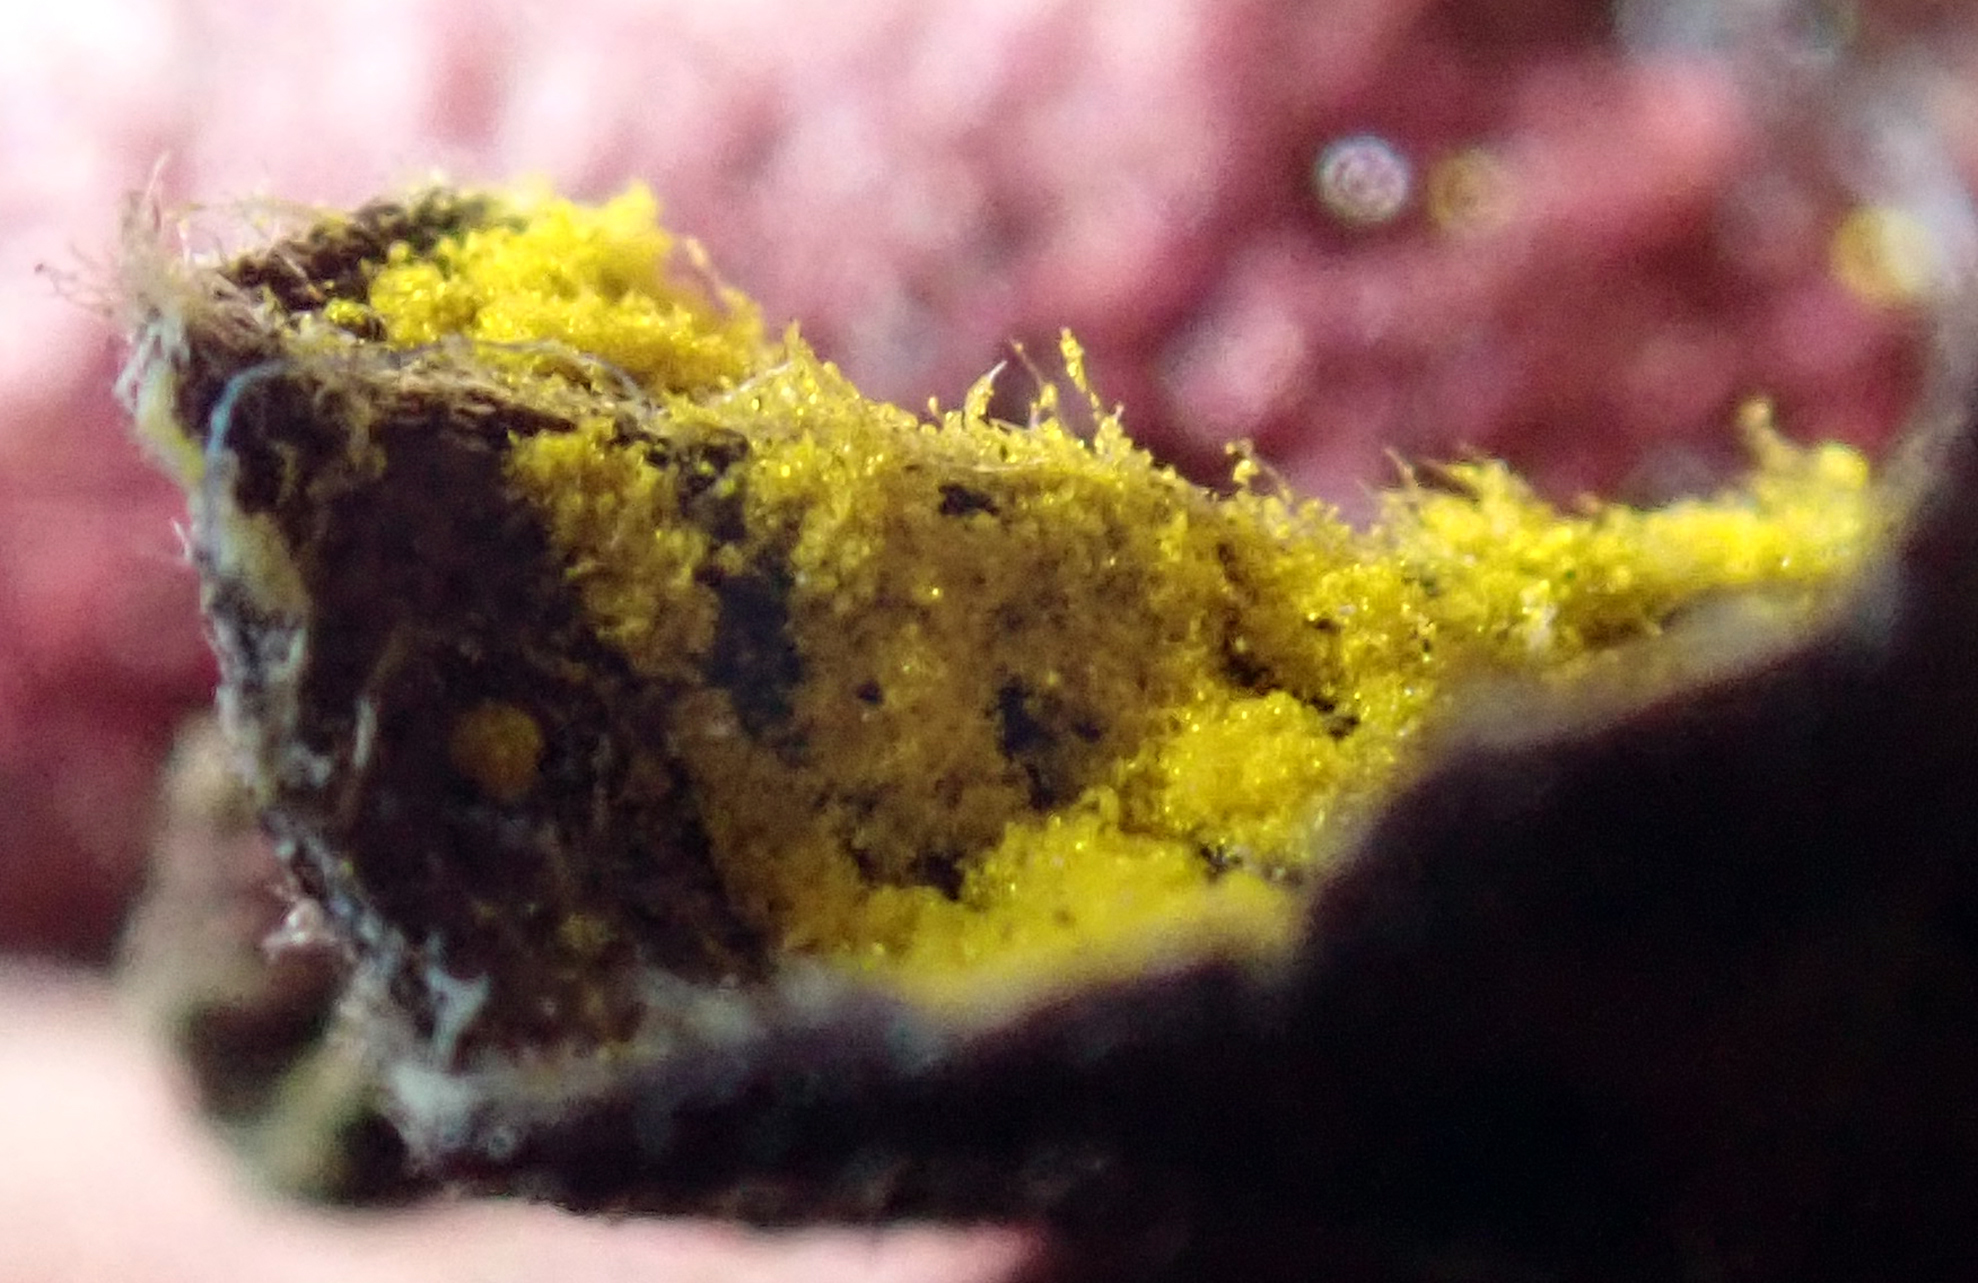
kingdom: Fungi
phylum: Basidiomycota
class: Pucciniomycetes
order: Pucciniales
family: Sphaerophragmiaceae
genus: Austropuccinia
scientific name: Austropuccinia psidii
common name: Myrtle rust
